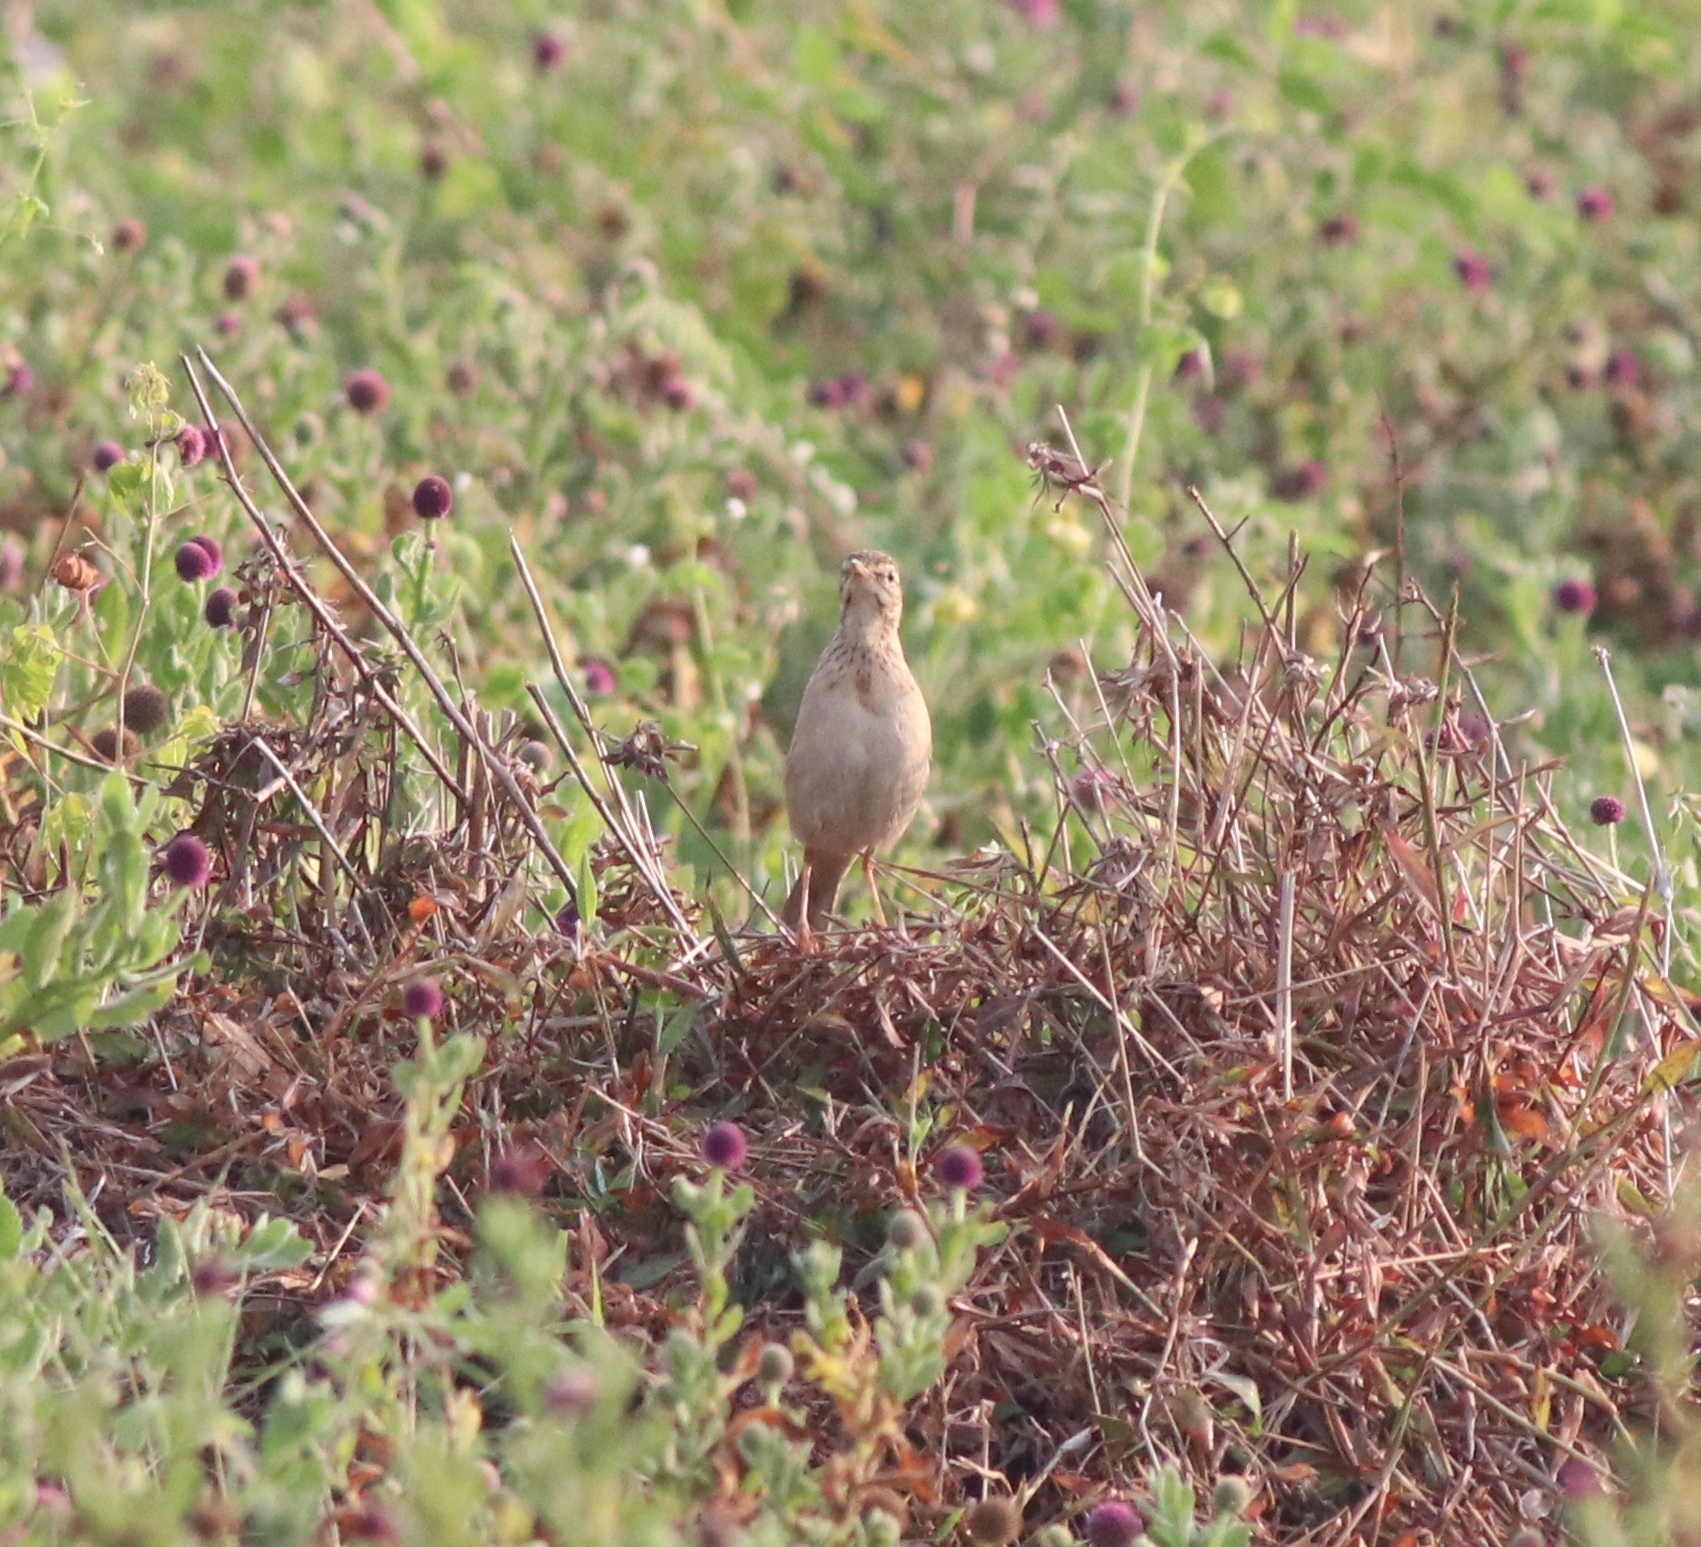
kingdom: Animalia
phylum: Chordata
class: Aves
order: Passeriformes
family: Motacillidae
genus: Anthus
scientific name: Anthus rufulus
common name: Paddyfield pipit
